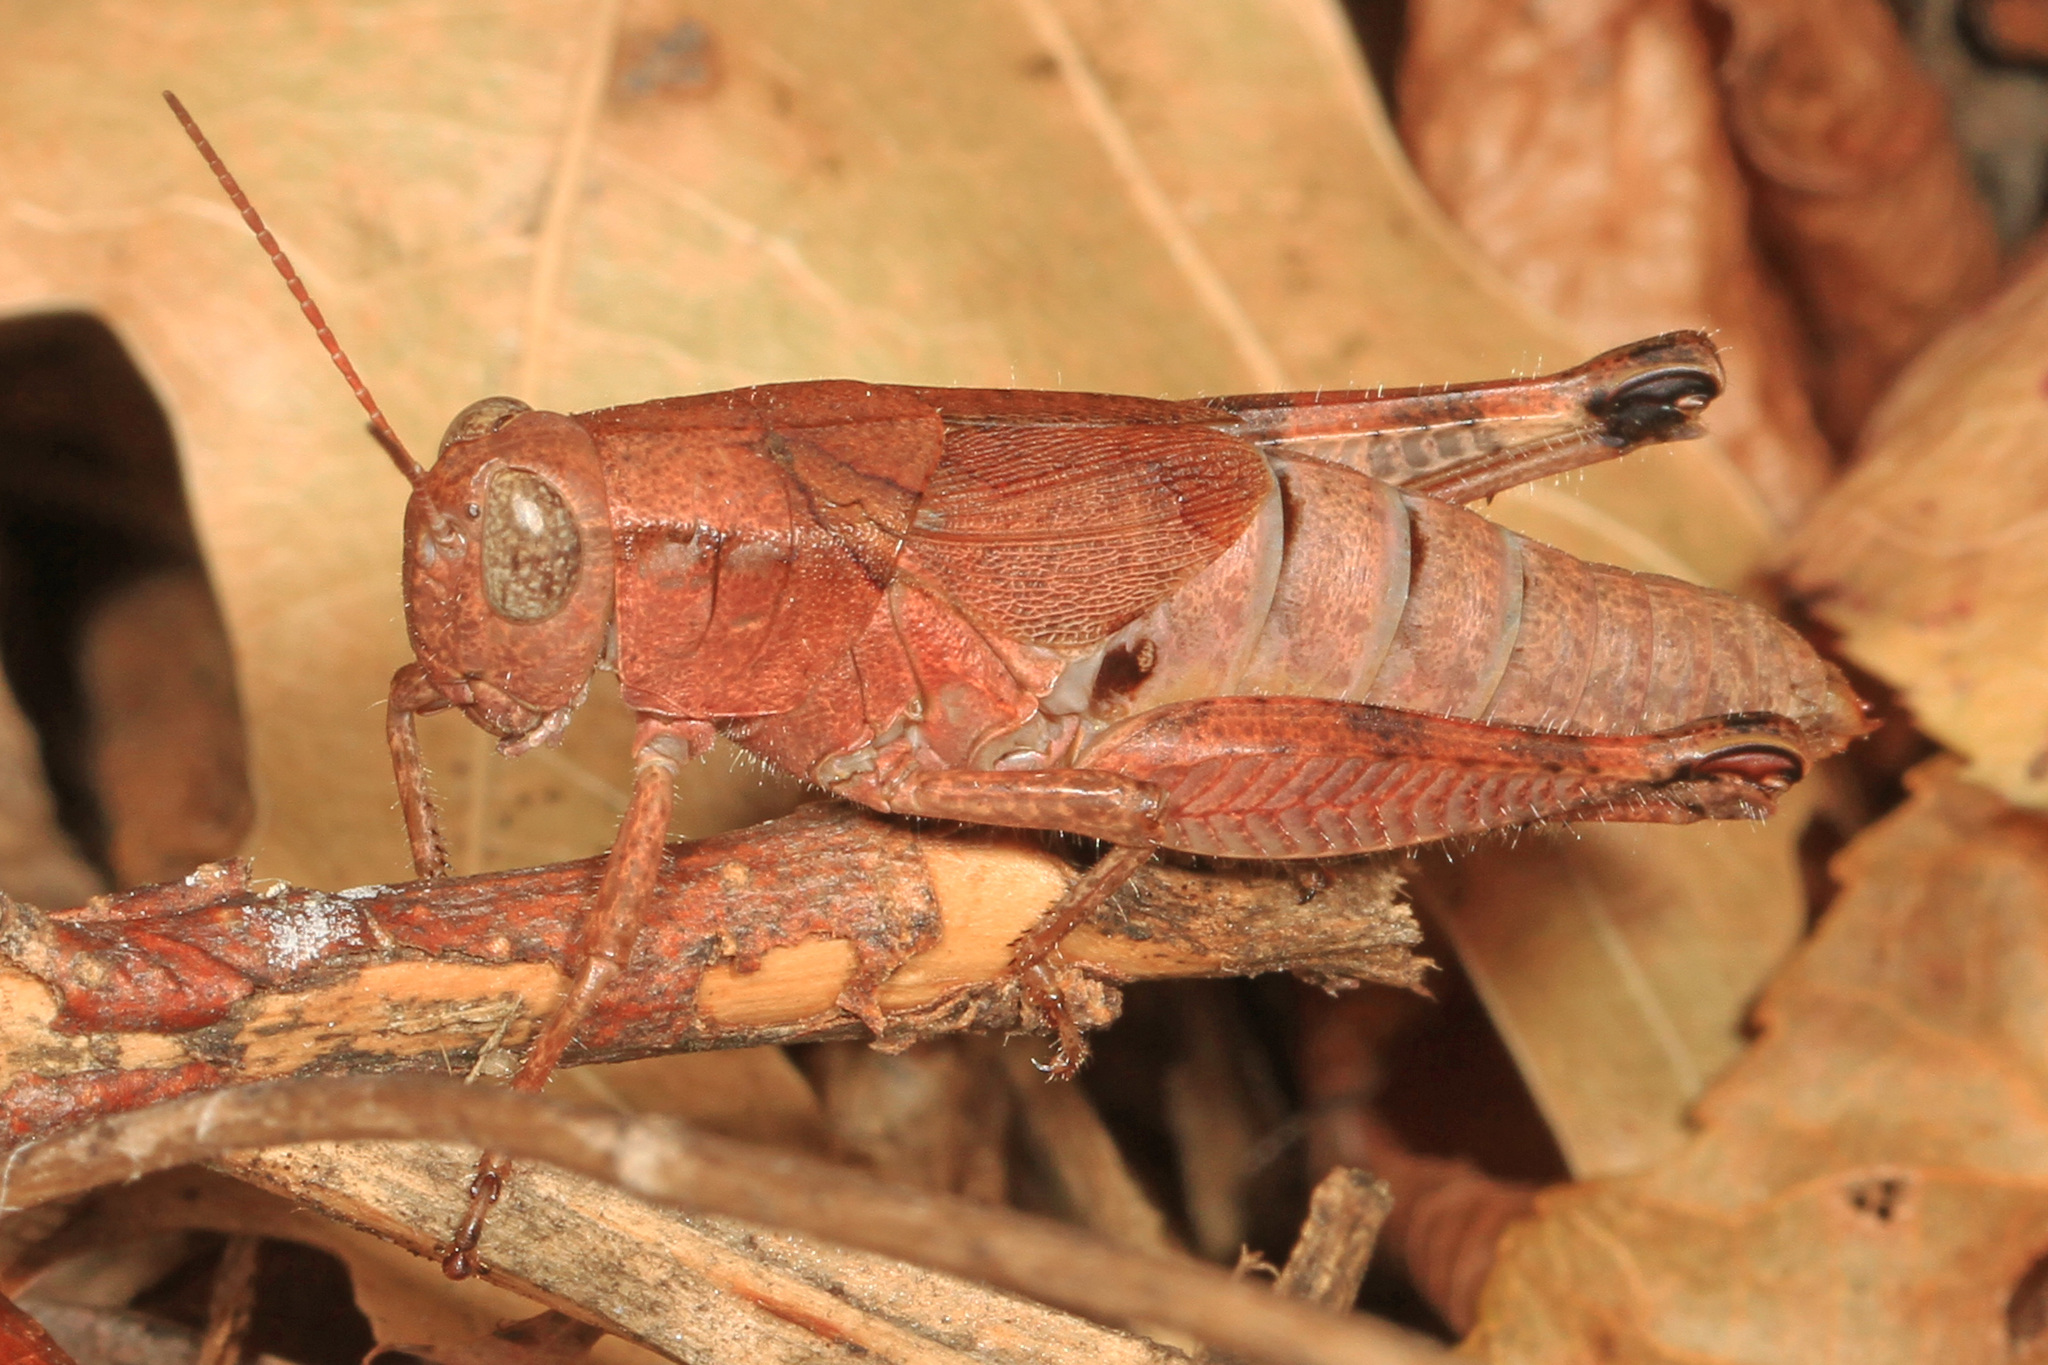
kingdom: Animalia
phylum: Arthropoda
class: Insecta
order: Orthoptera
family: Acrididae
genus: Melanoplus
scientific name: Melanoplus scudderi
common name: Scudder's short-winged locust
